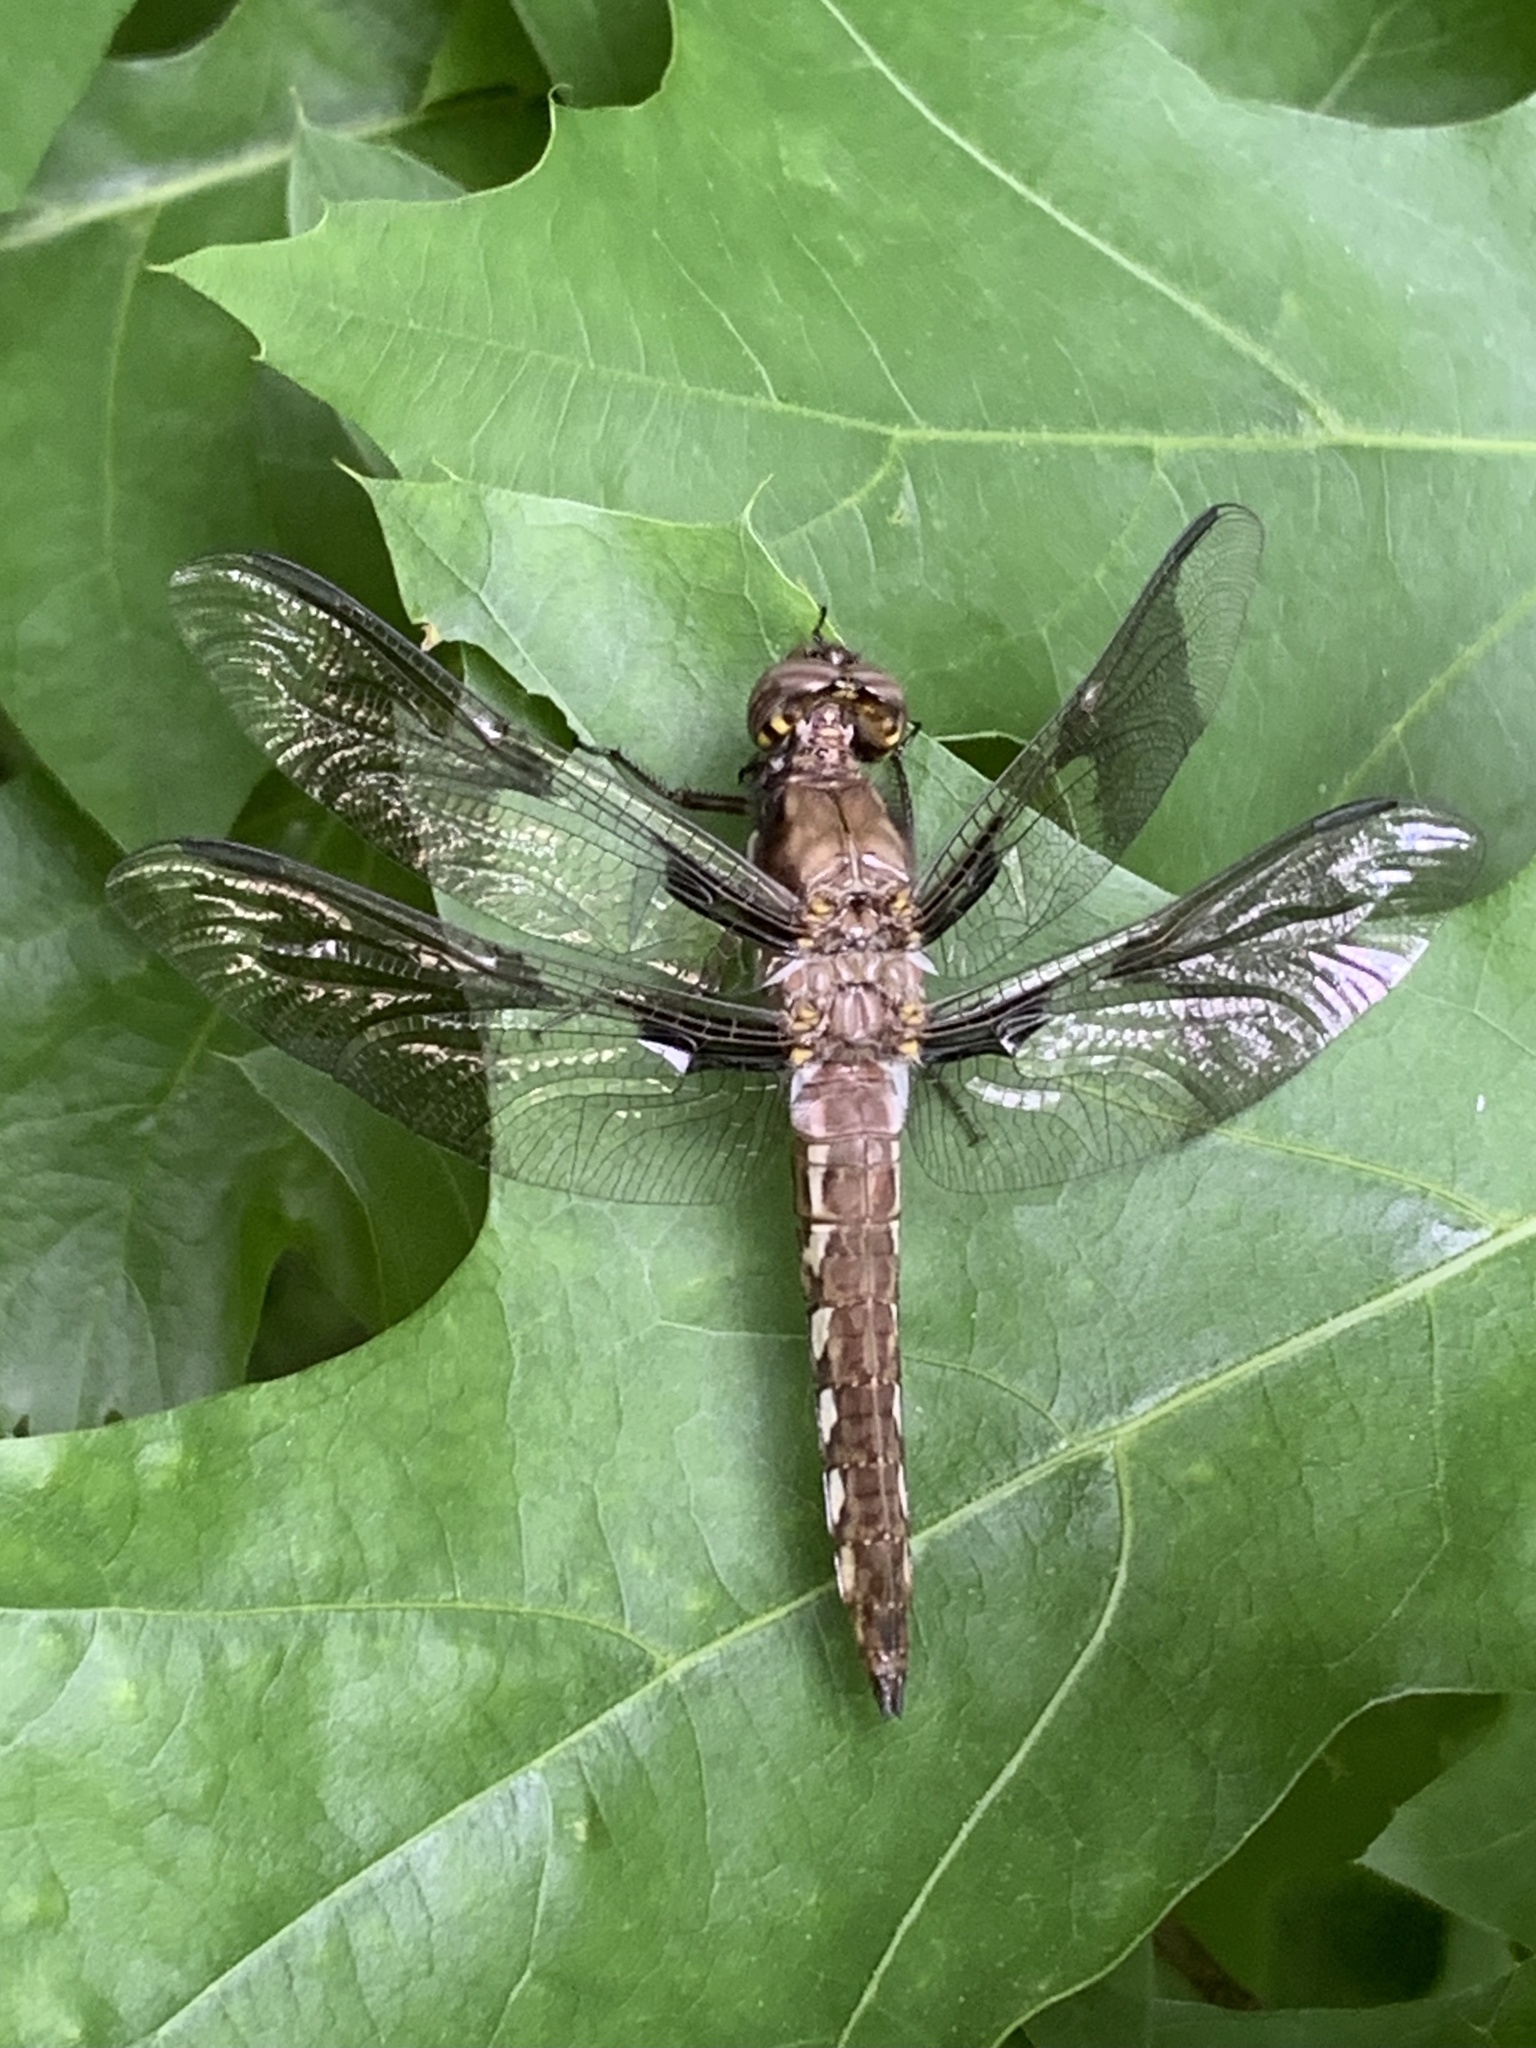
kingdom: Animalia
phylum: Arthropoda
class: Insecta
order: Odonata
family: Libellulidae
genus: Plathemis
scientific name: Plathemis lydia
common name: Common whitetail
